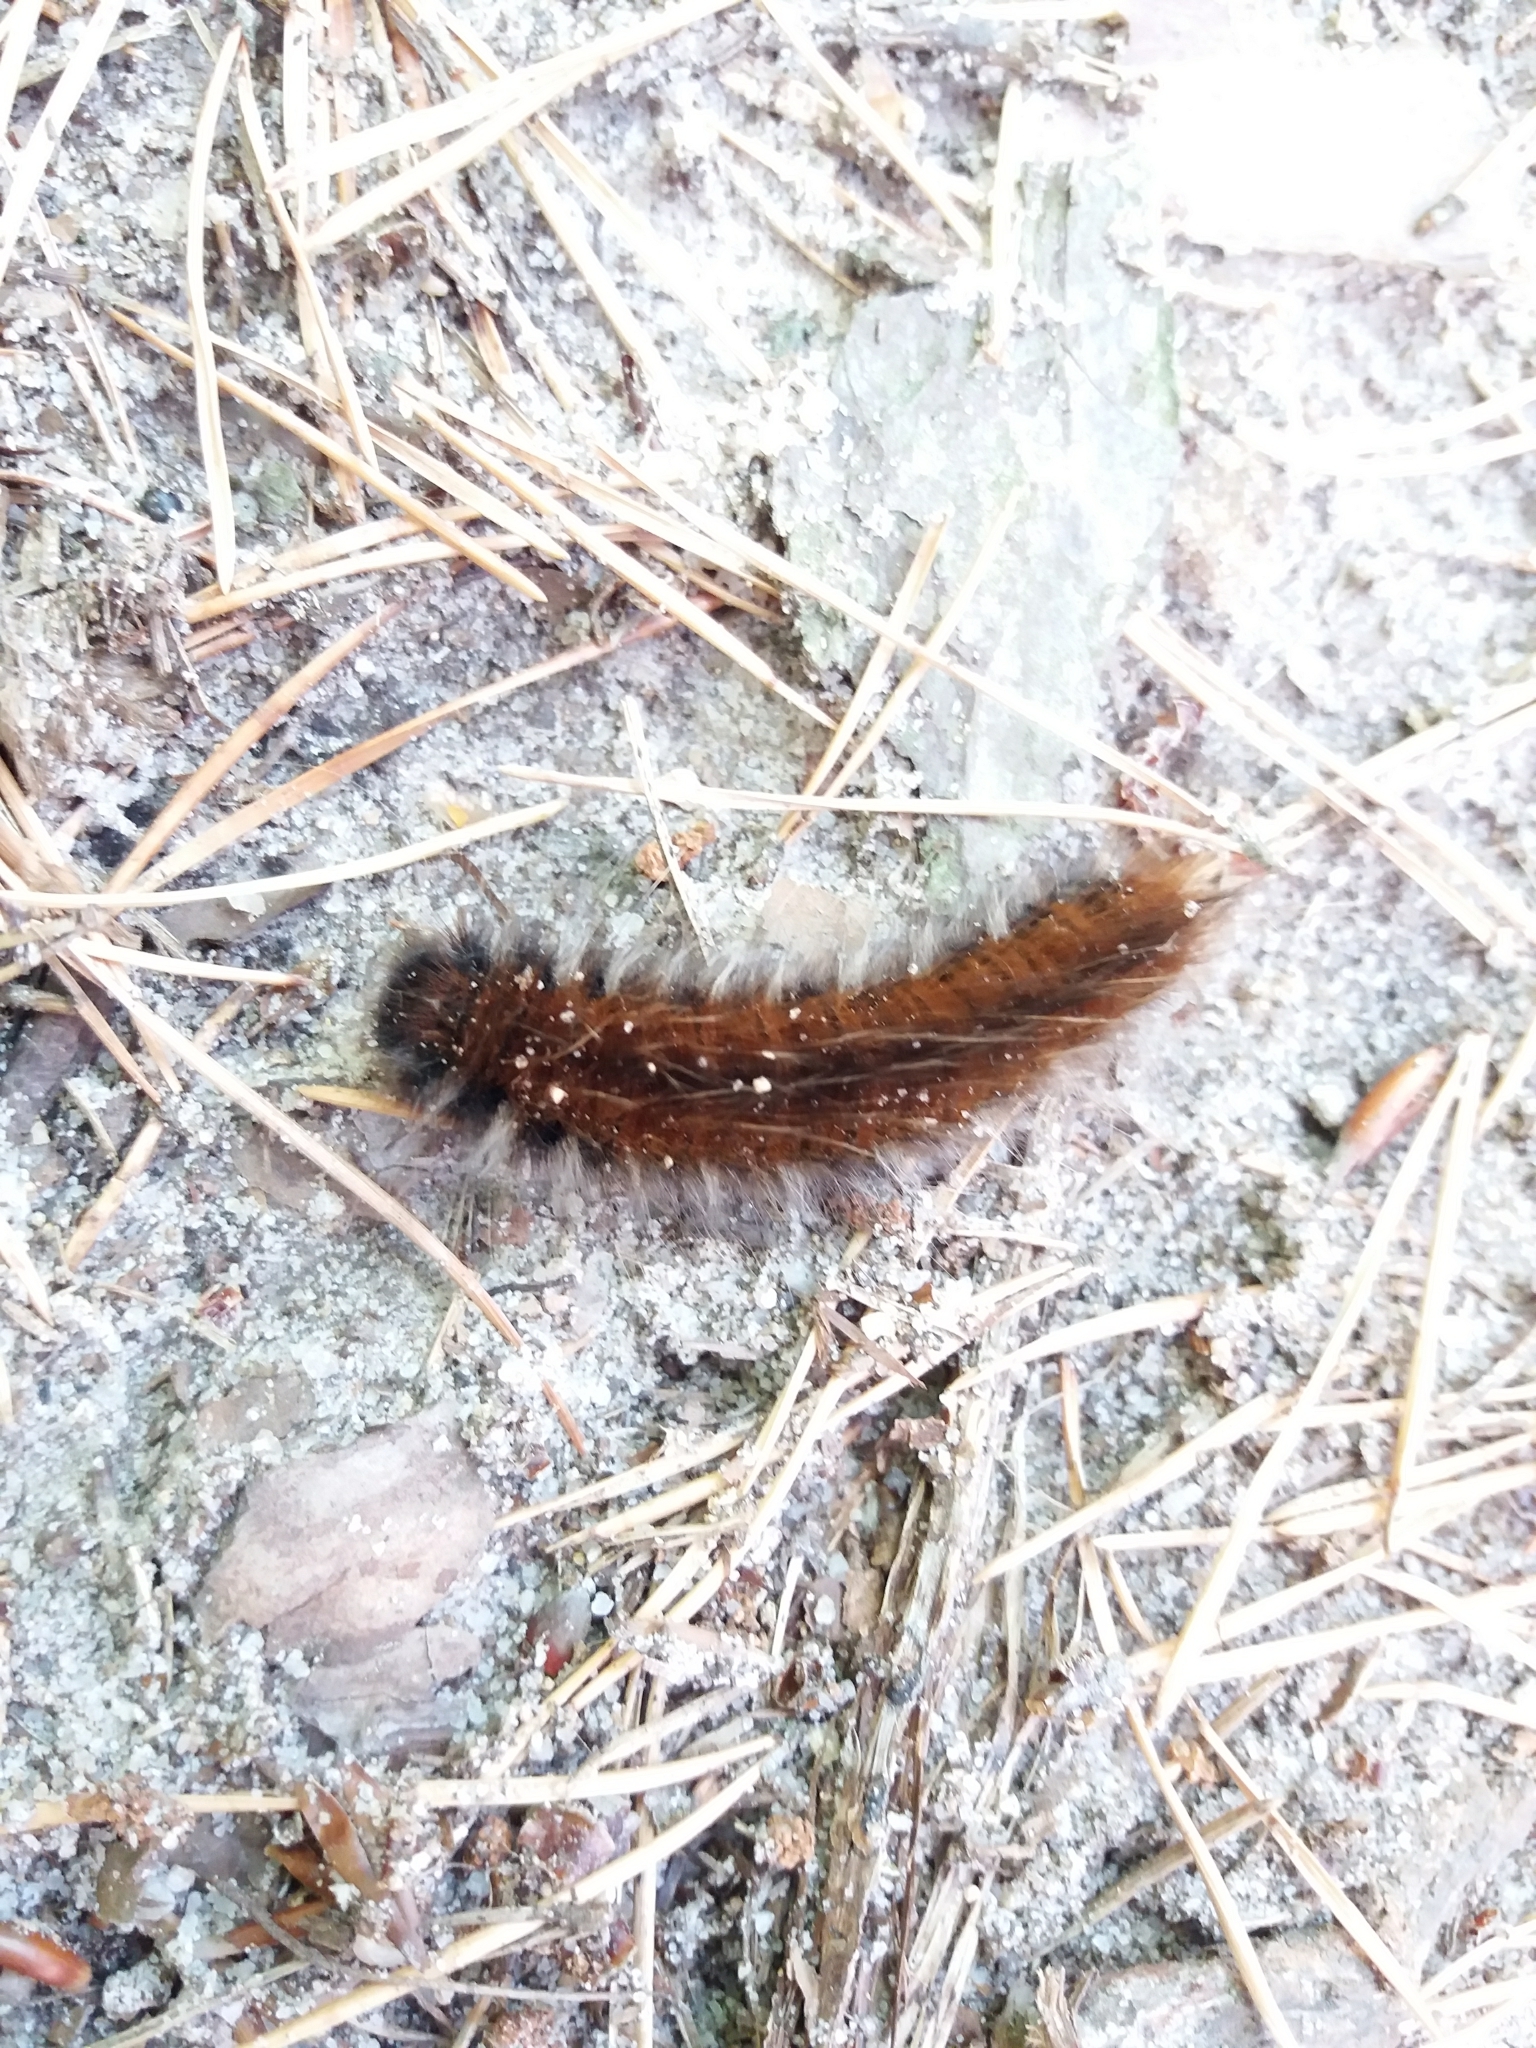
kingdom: Animalia
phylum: Arthropoda
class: Insecta
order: Lepidoptera
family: Lasiocampidae
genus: Macrothylacia
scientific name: Macrothylacia rubi
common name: Fox moth
